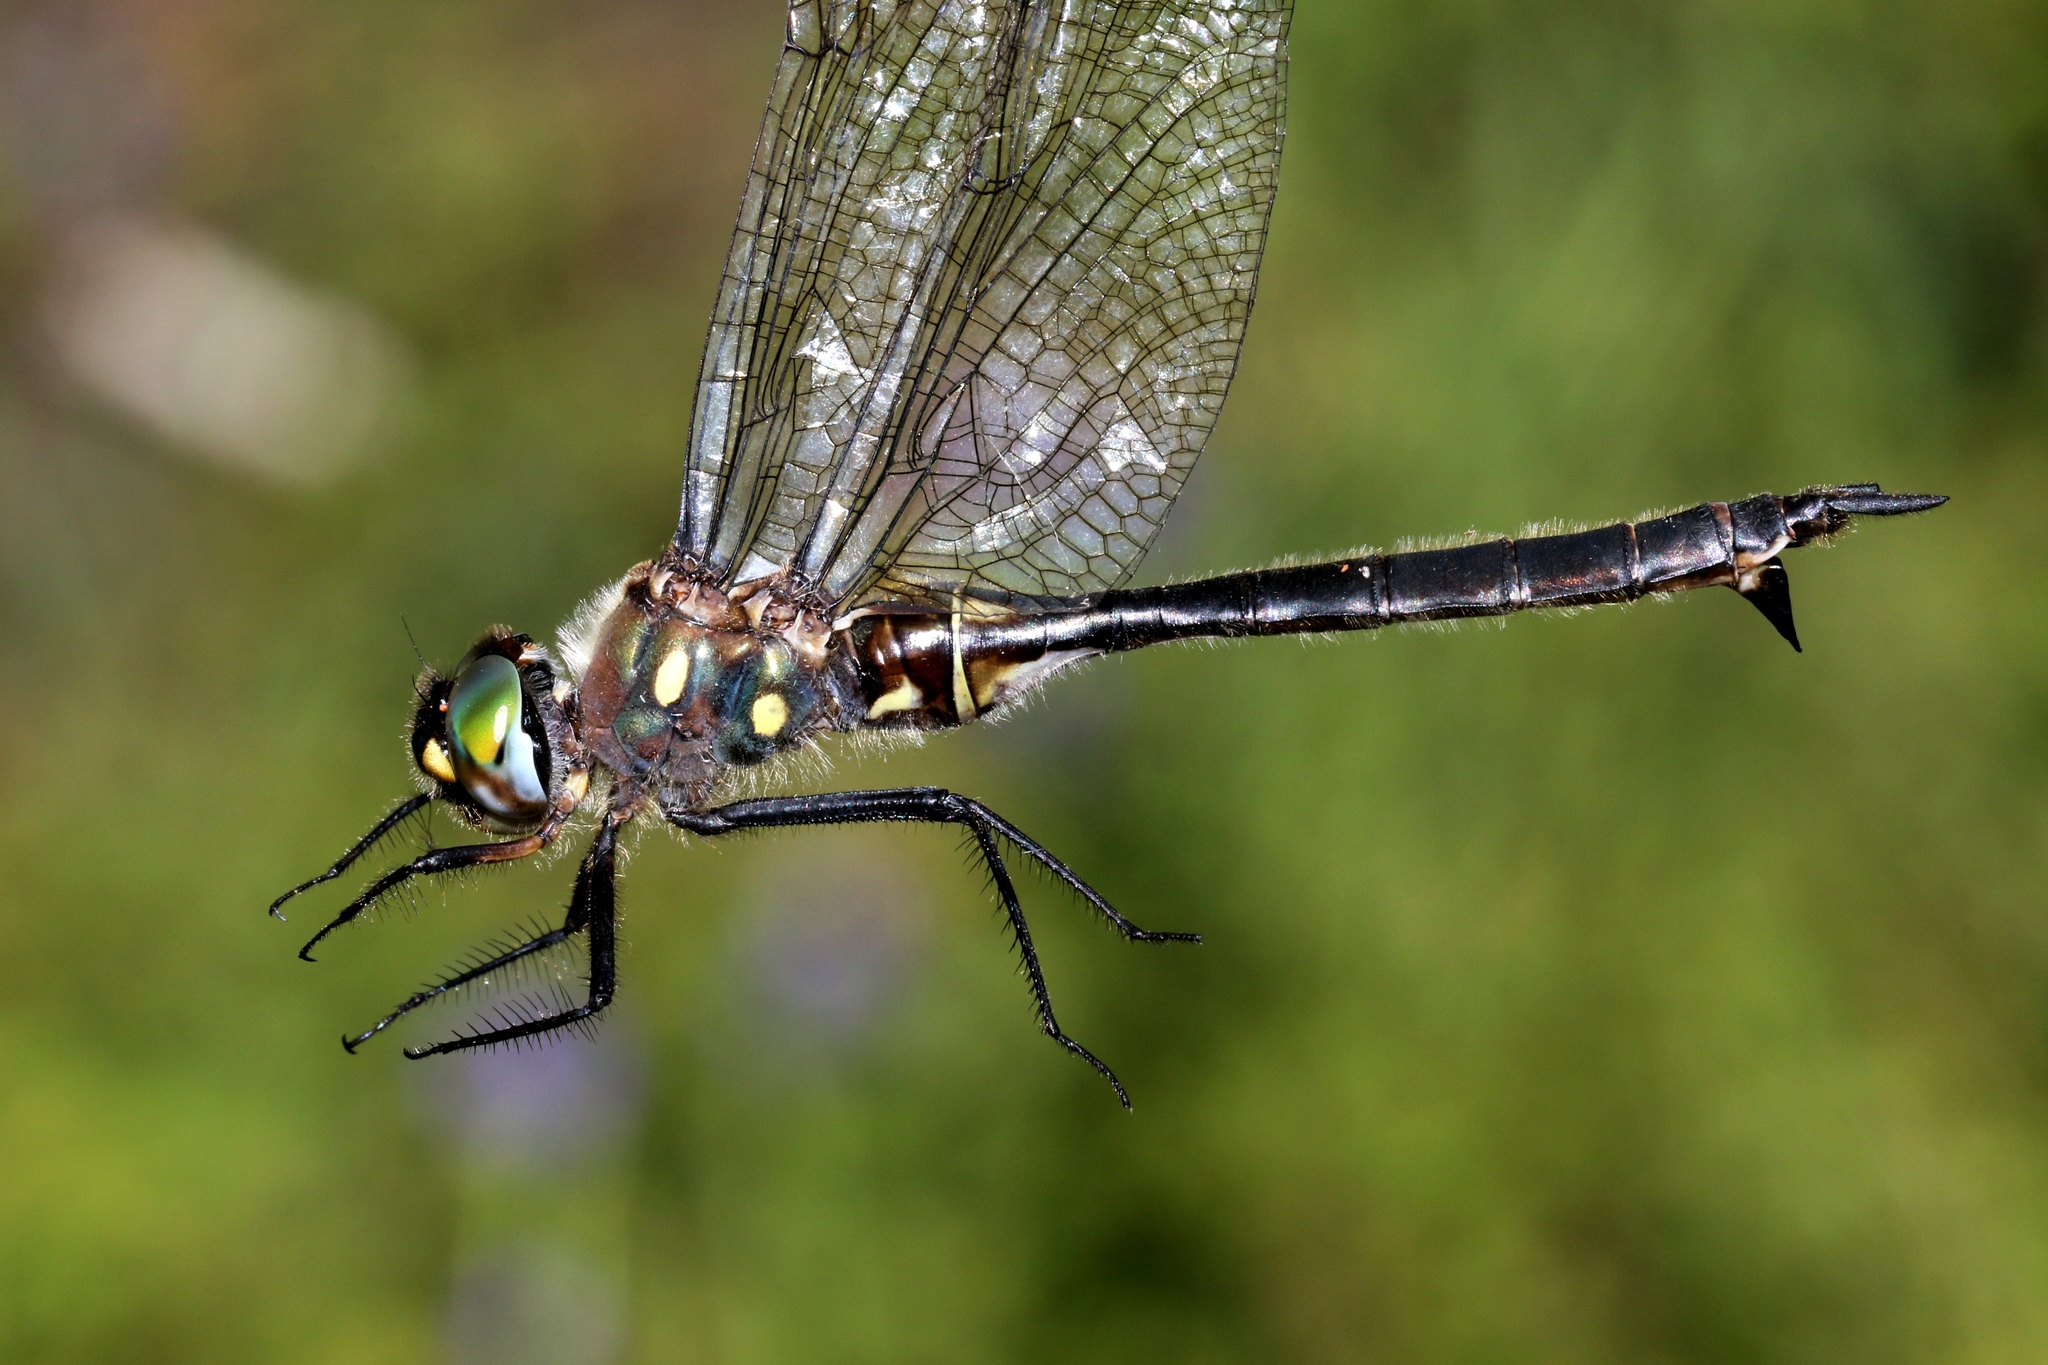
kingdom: Animalia
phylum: Arthropoda
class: Insecta
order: Odonata
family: Corduliidae
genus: Somatochlora
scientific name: Somatochlora minor
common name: Ocellated emerald
